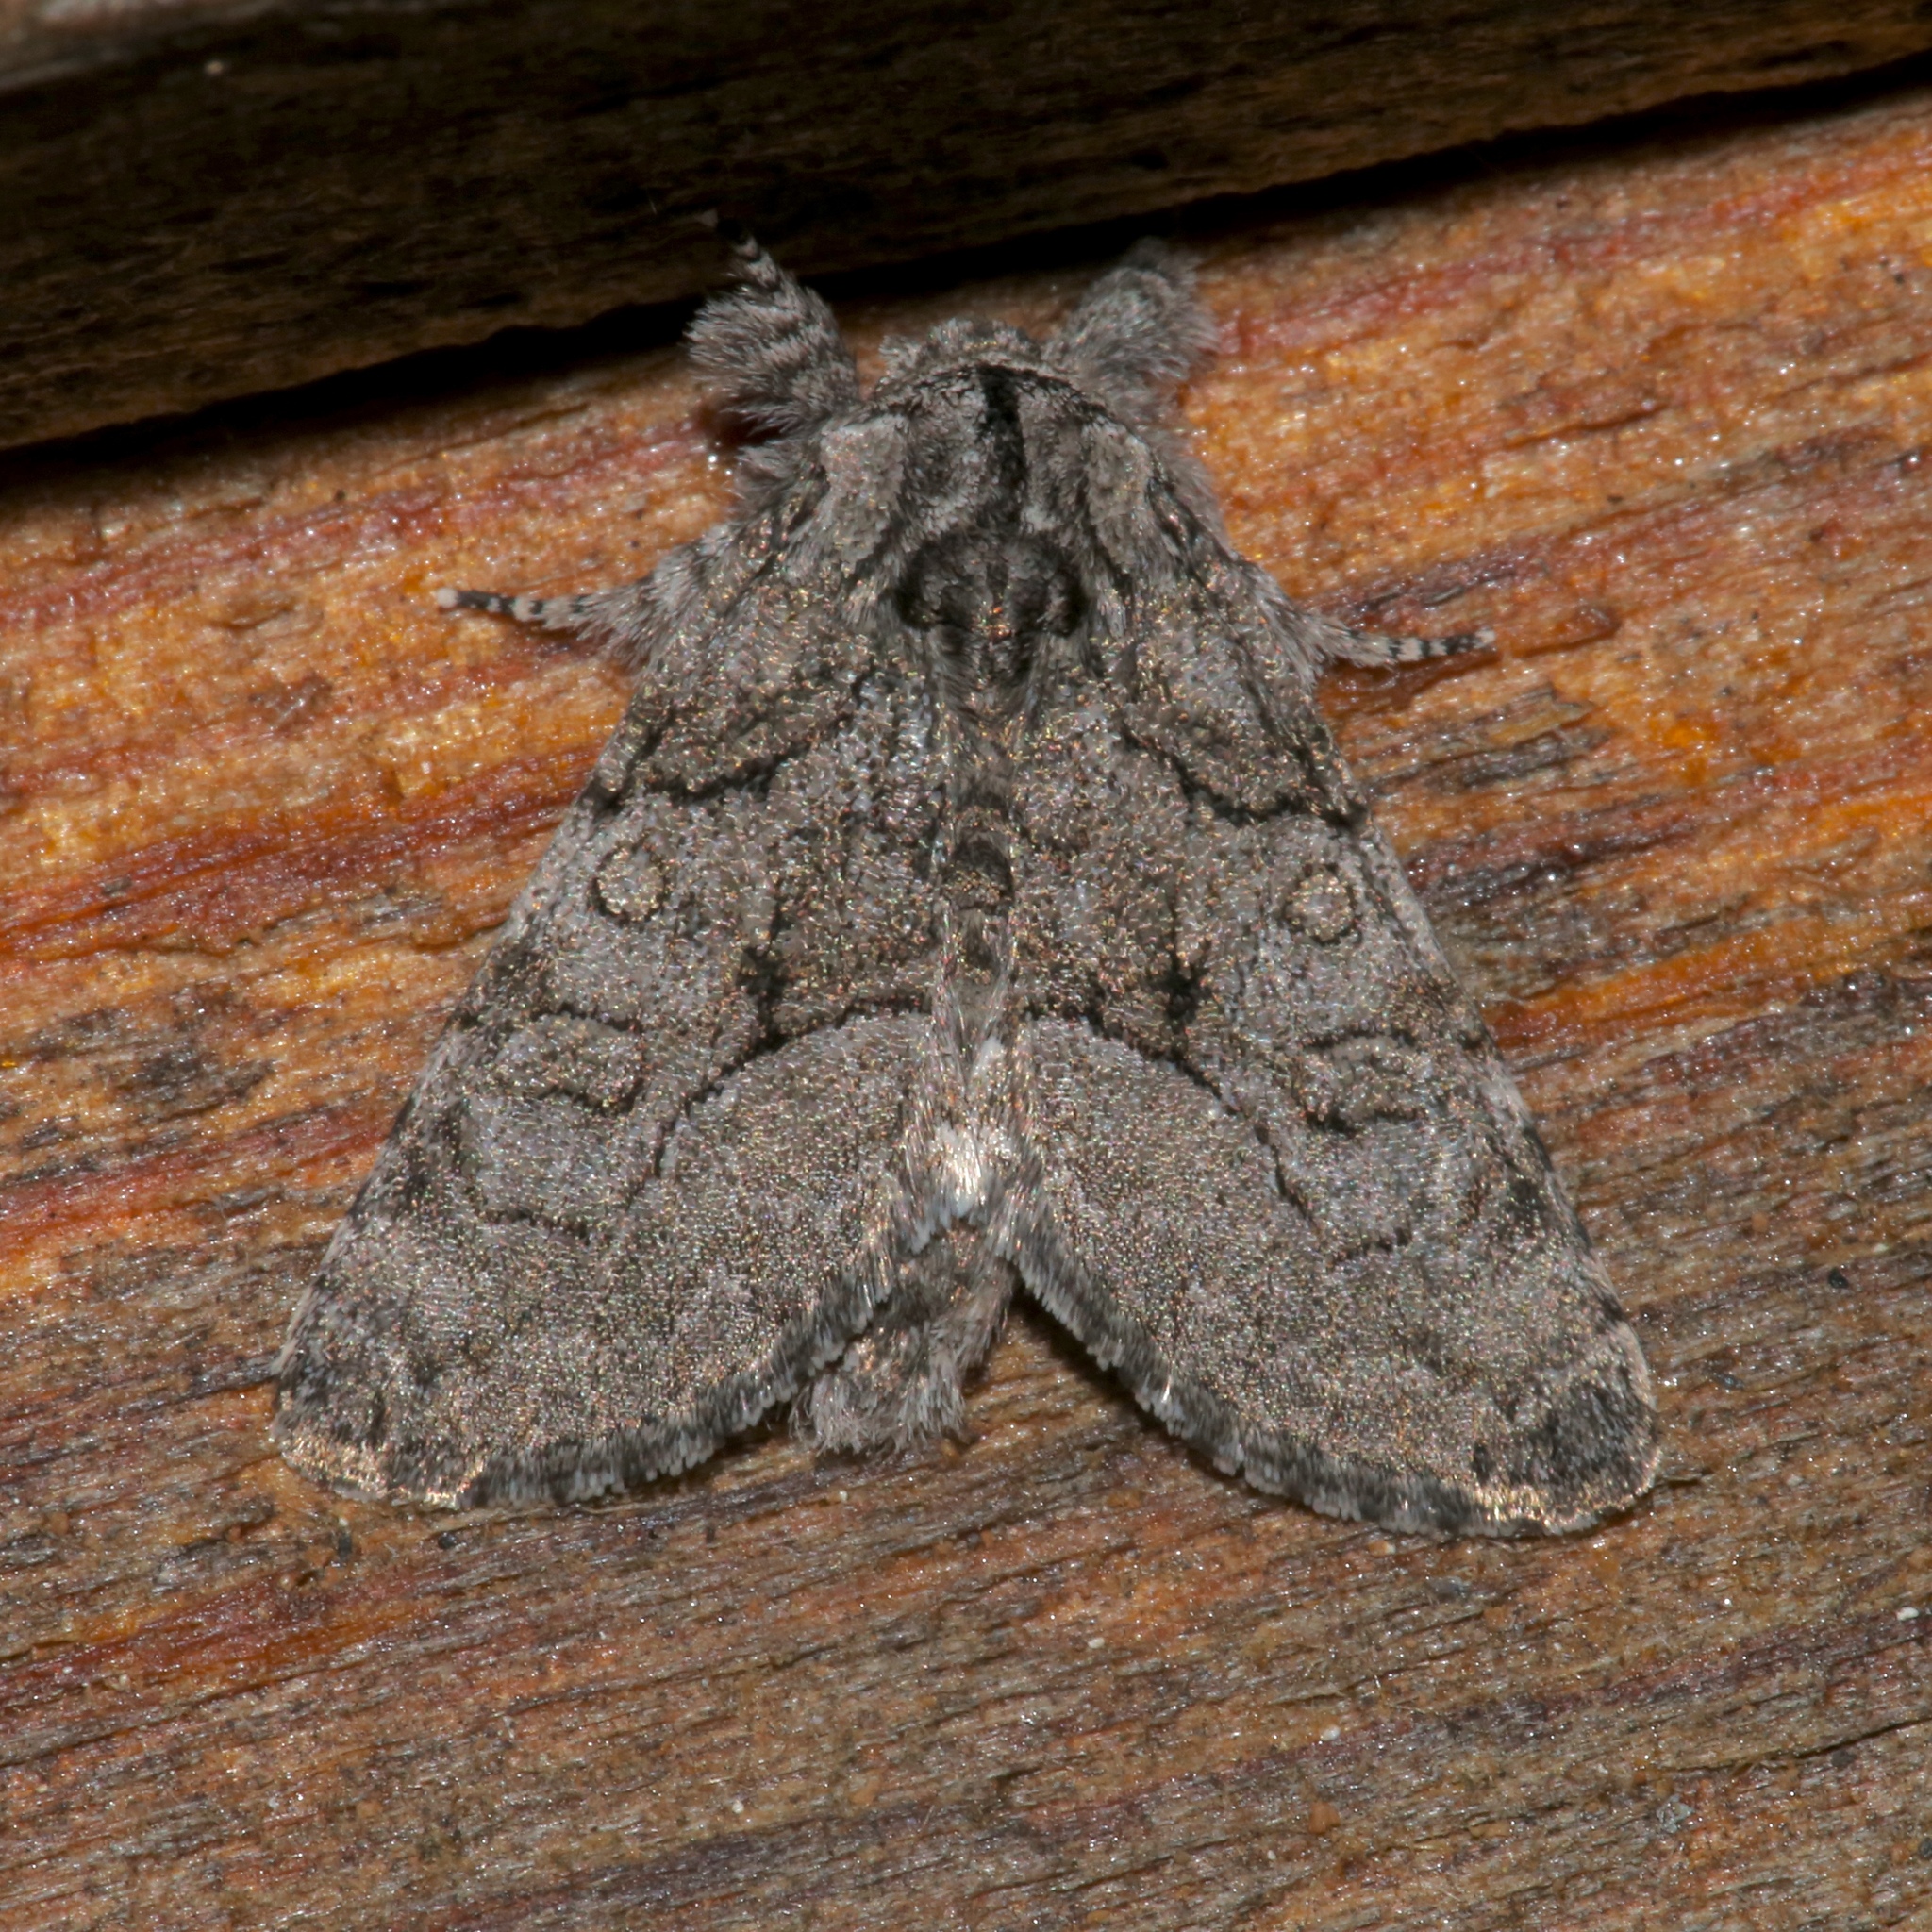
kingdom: Animalia
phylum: Arthropoda
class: Insecta
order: Lepidoptera
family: Noctuidae
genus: Raphia
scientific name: Raphia frater
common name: Brother
